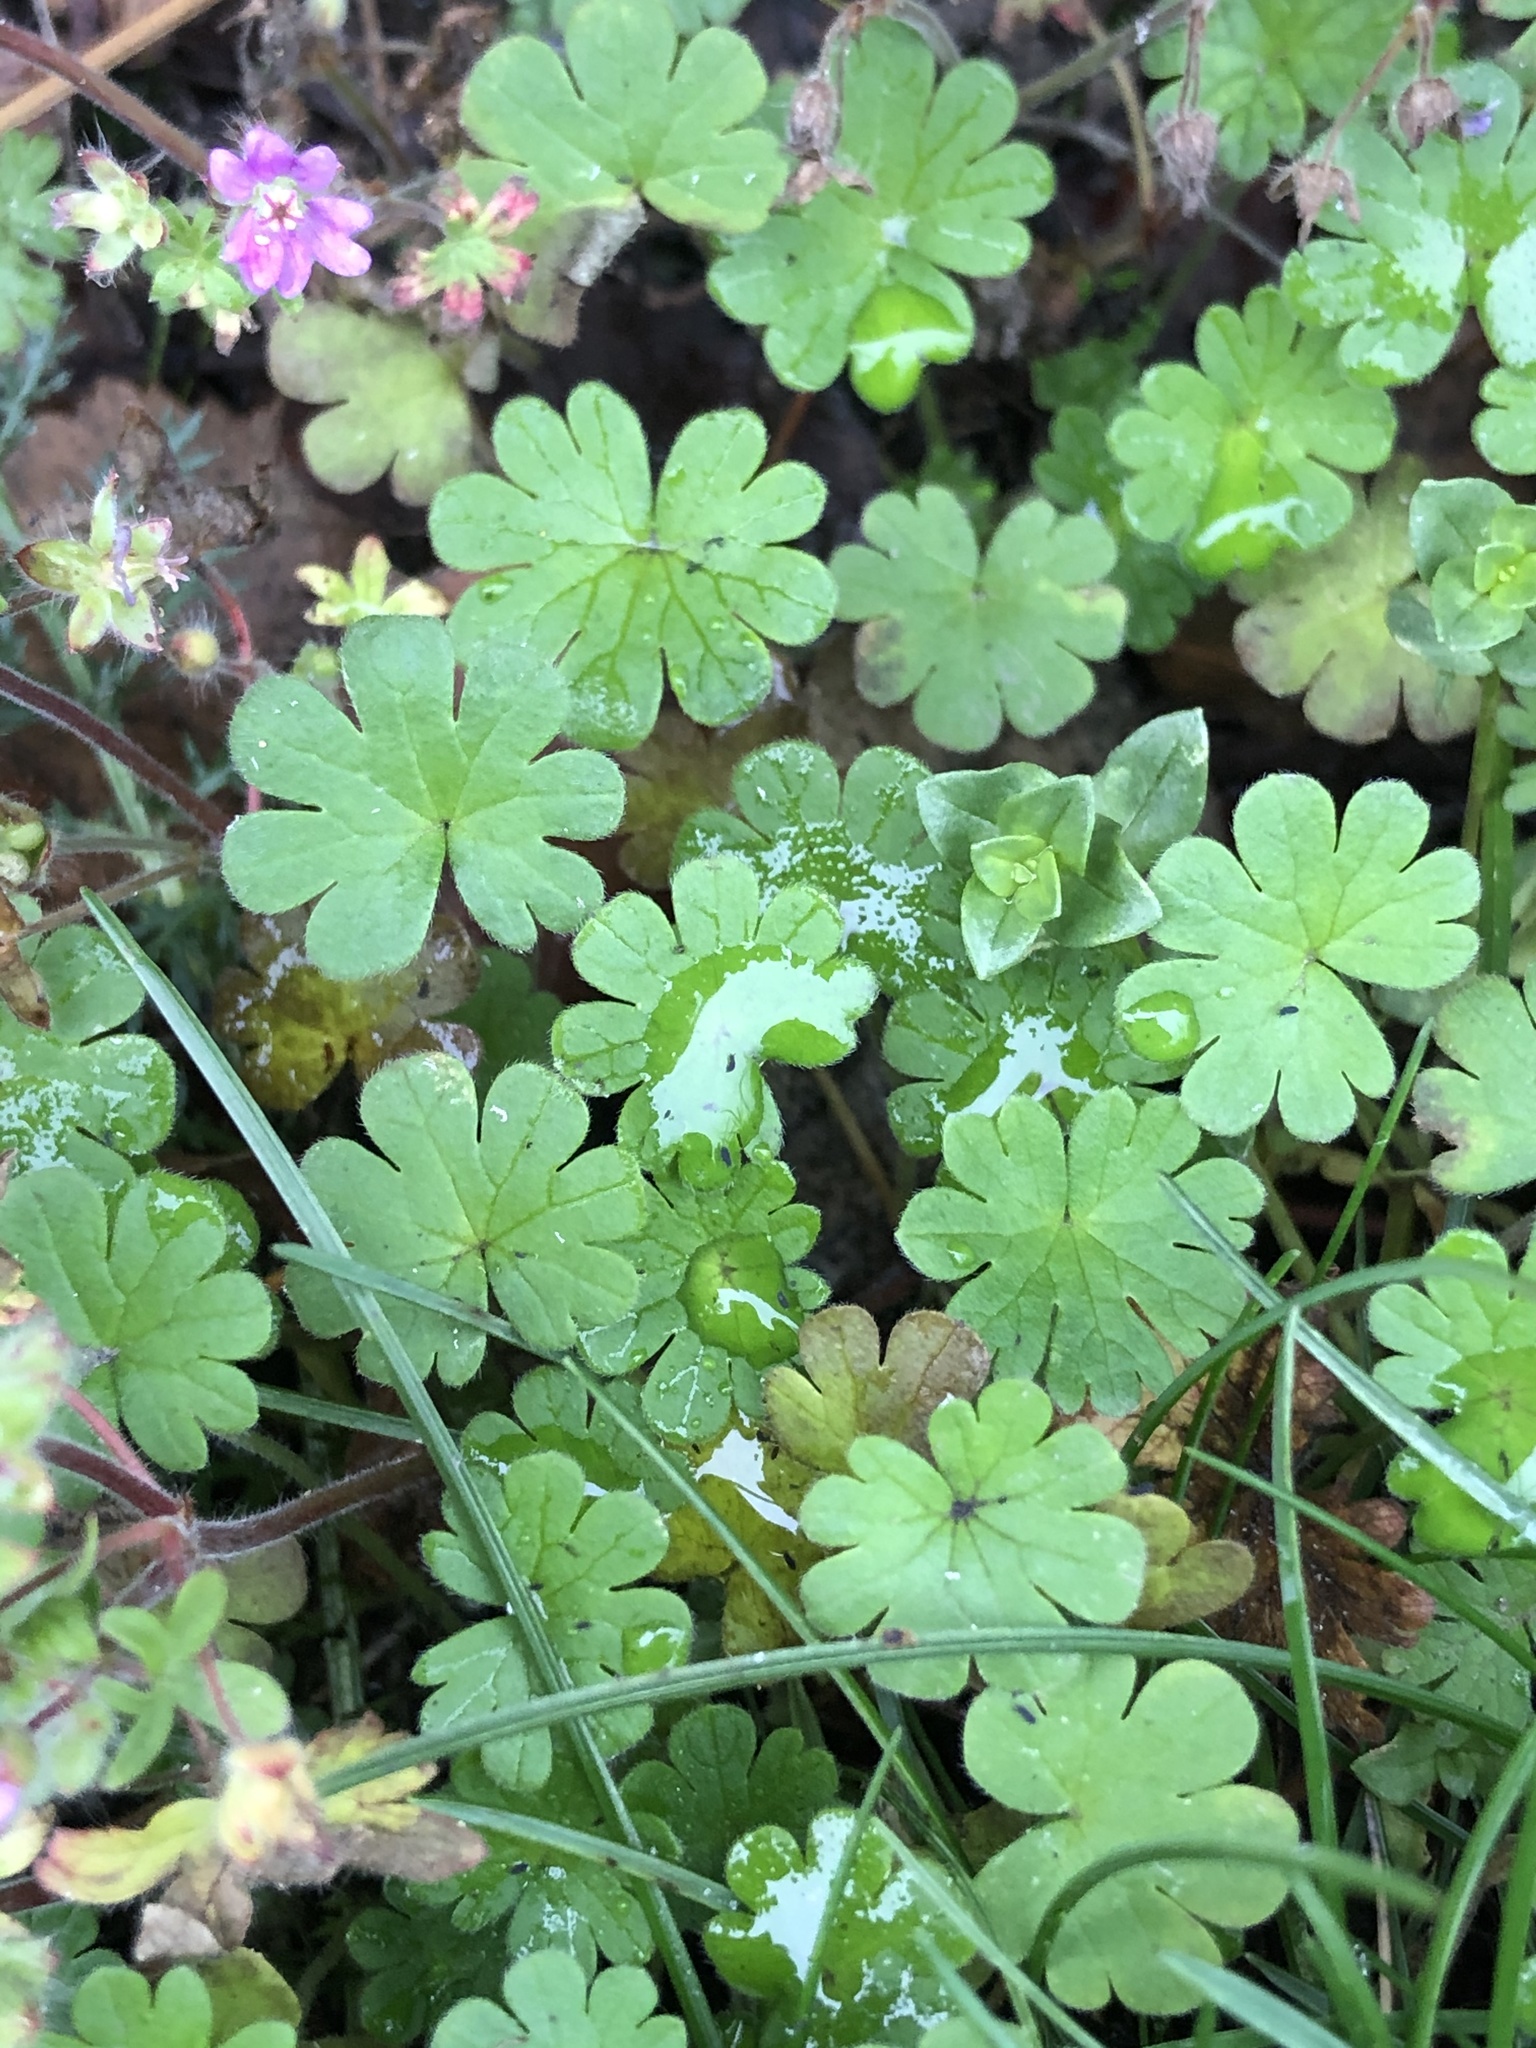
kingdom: Plantae
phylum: Tracheophyta
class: Magnoliopsida
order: Geraniales
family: Geraniaceae
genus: Geranium
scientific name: Geranium molle
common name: Dove's-foot crane's-bill
